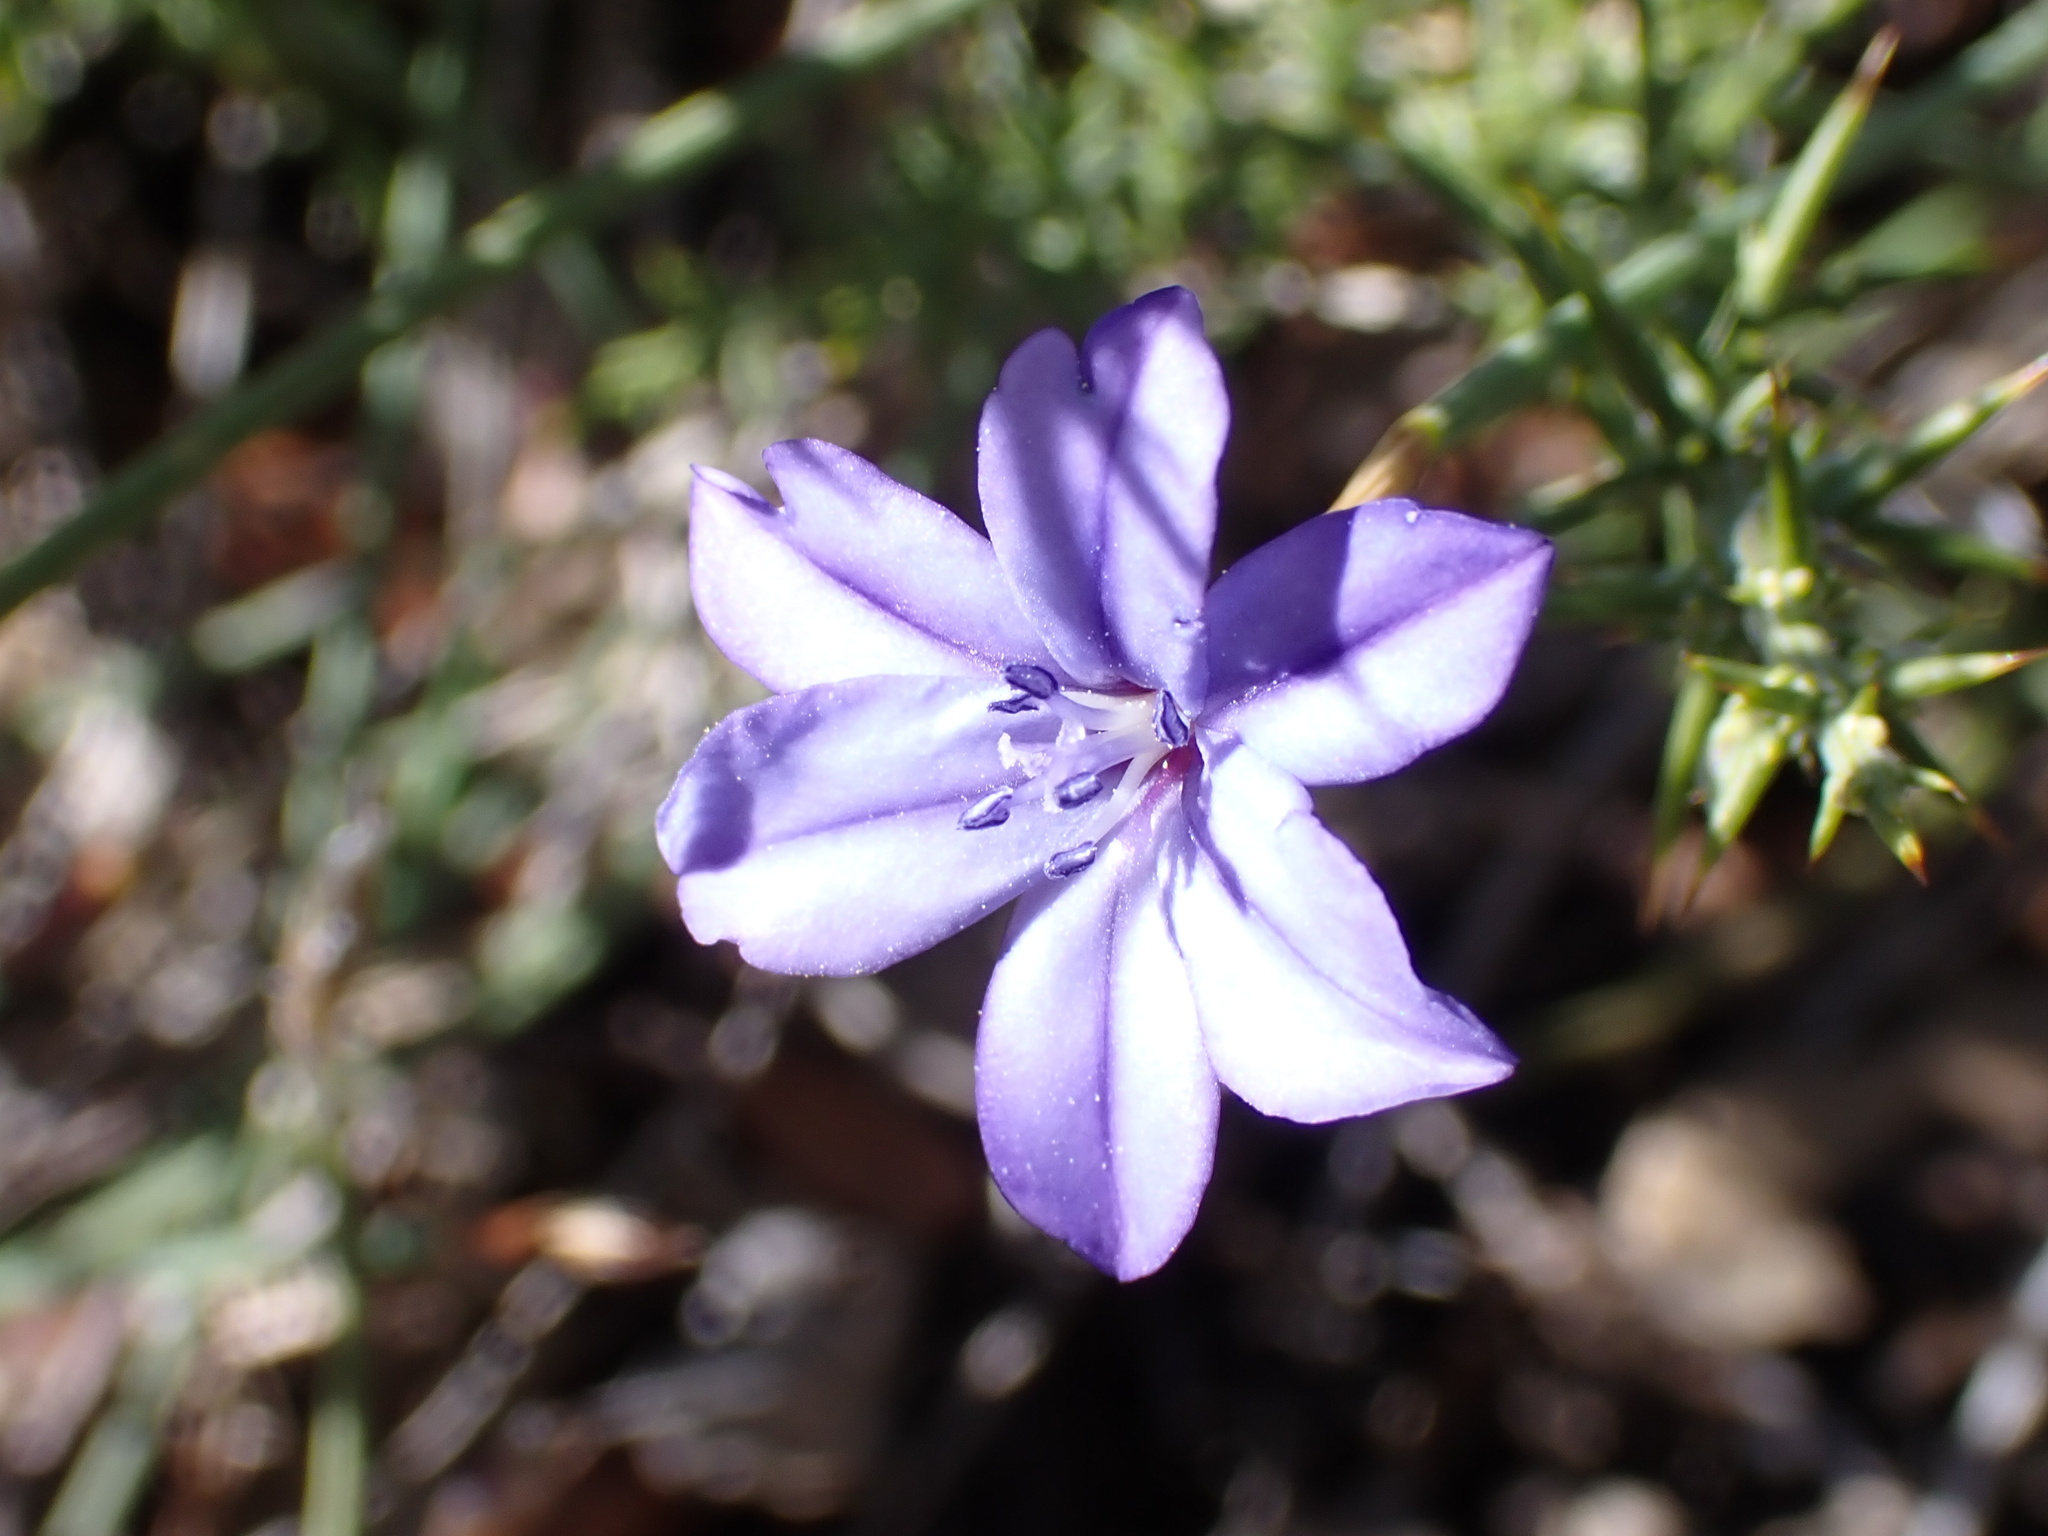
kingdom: Plantae
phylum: Tracheophyta
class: Liliopsida
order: Asparagales
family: Asparagaceae
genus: Aphyllanthes
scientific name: Aphyllanthes monspeliensis
